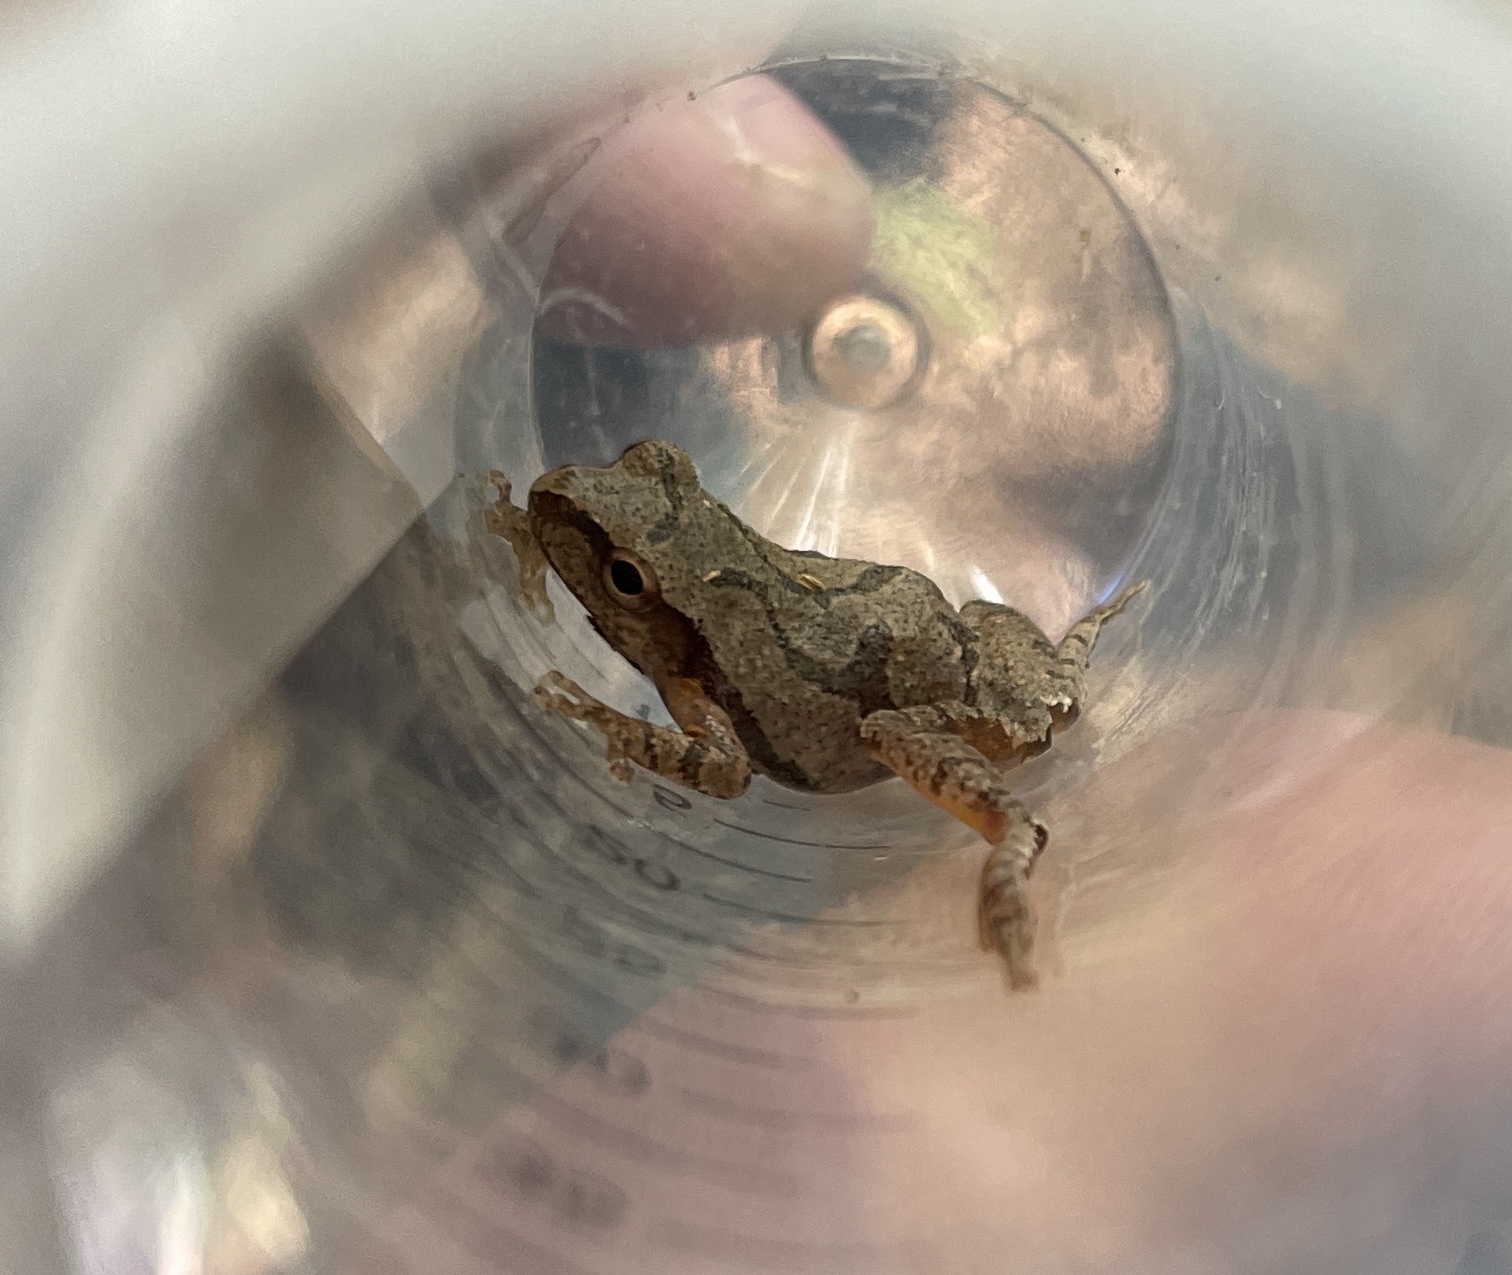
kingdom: Animalia
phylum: Chordata
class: Amphibia
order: Anura
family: Hylidae
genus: Pseudacris
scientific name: Pseudacris crucifer
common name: Spring peeper
